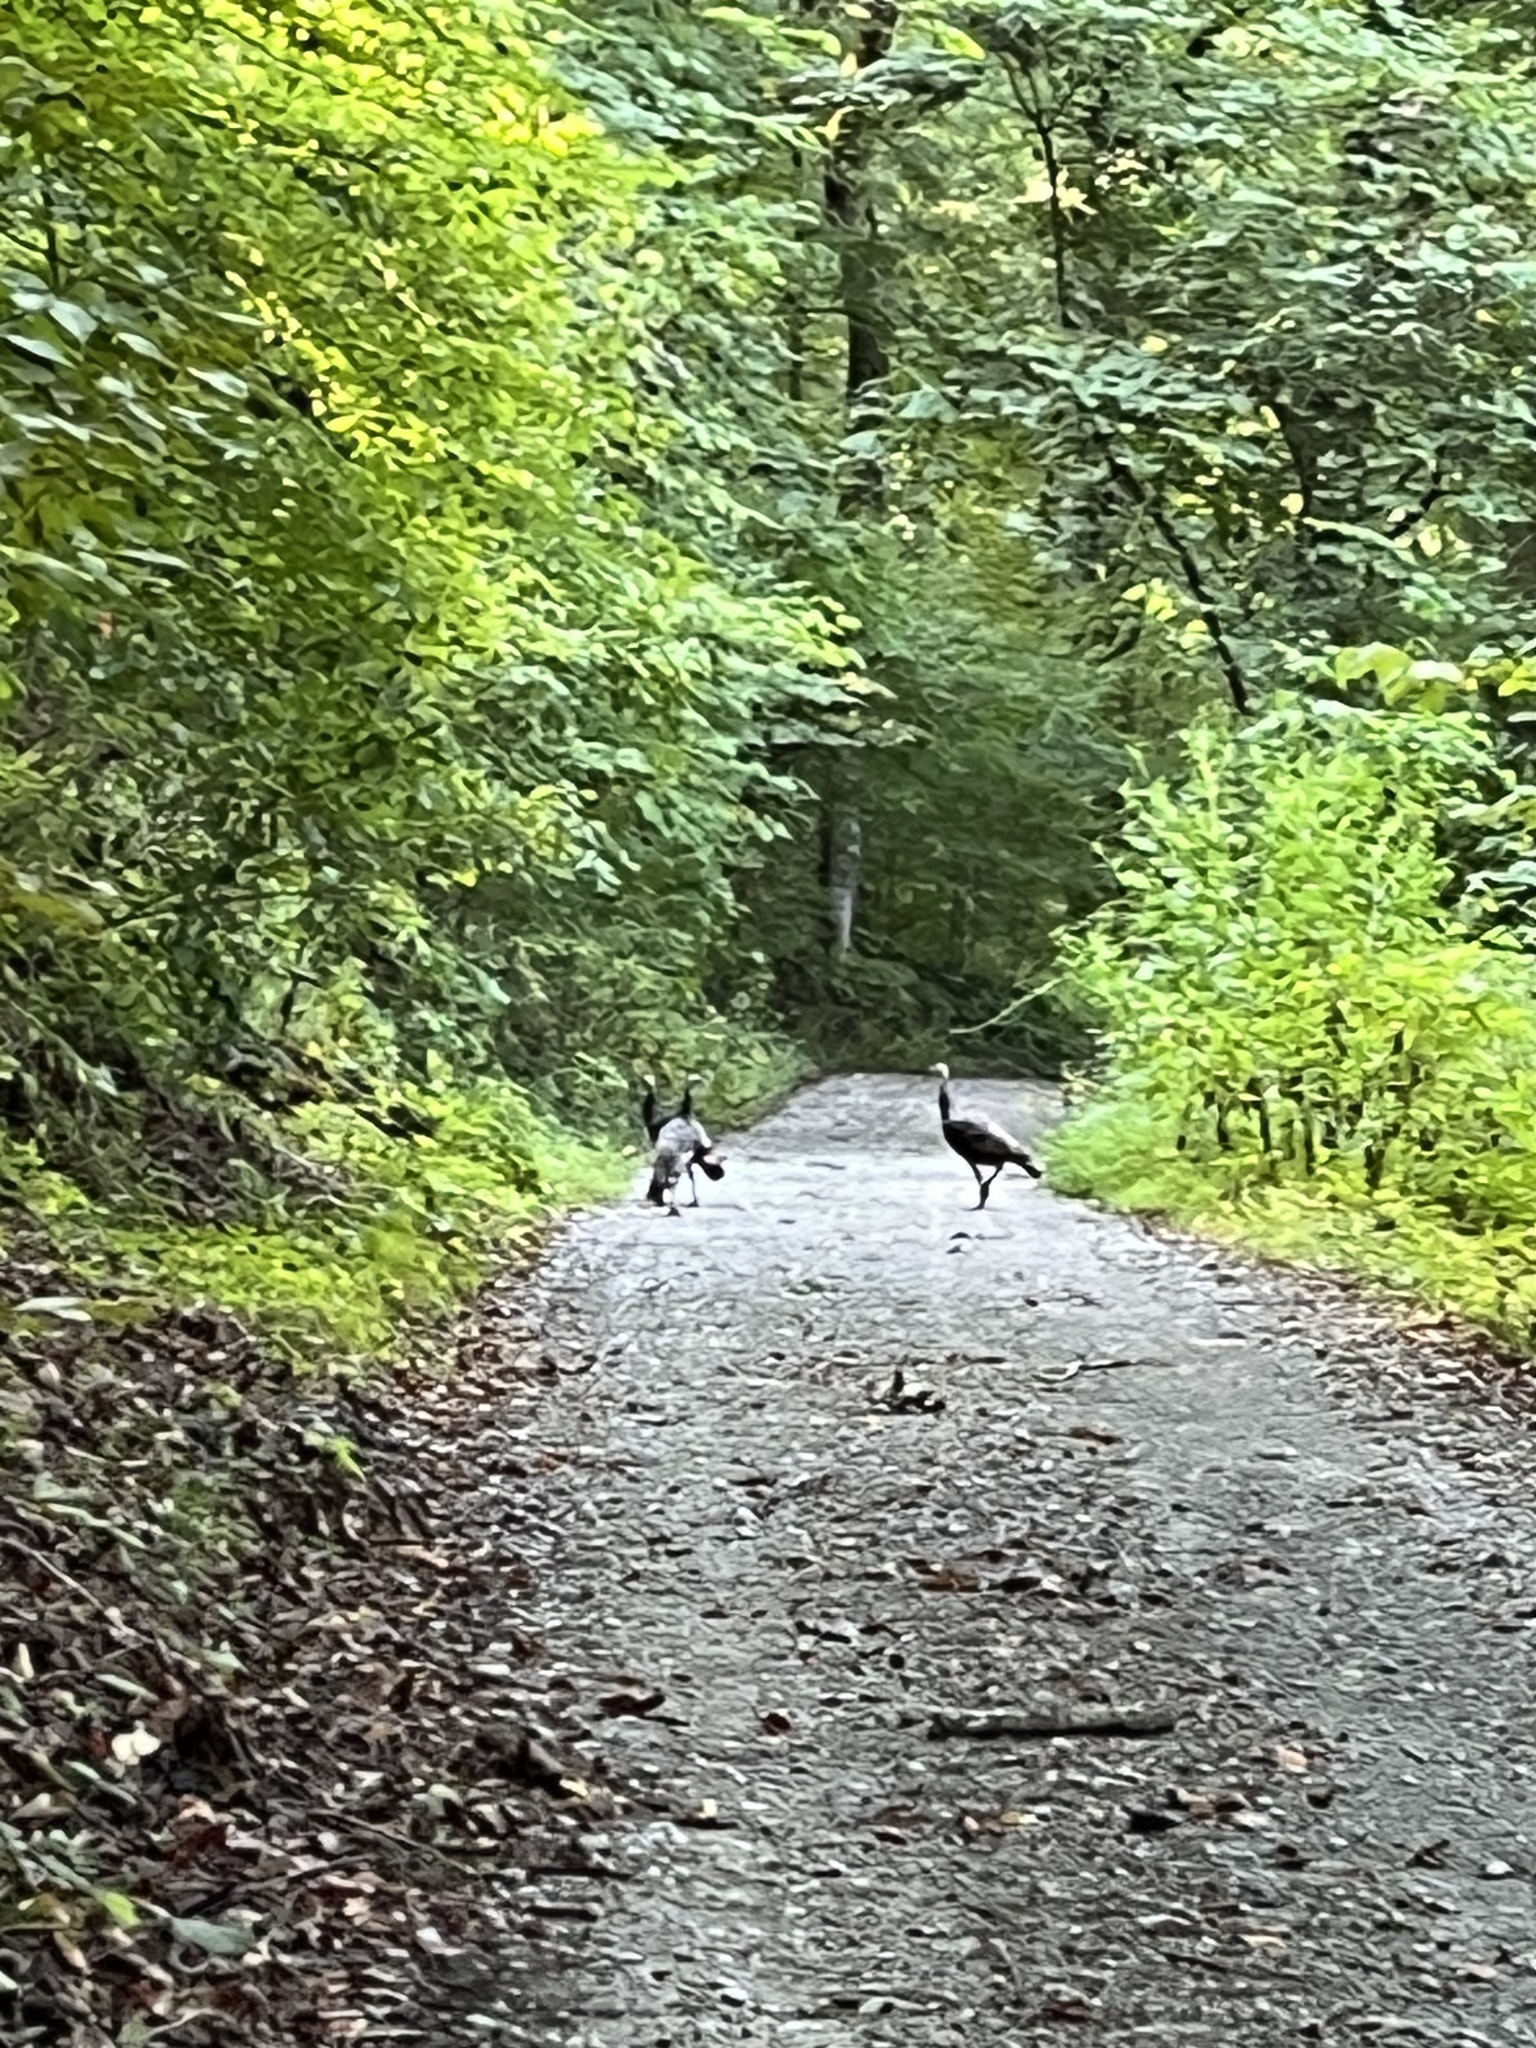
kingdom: Animalia
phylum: Chordata
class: Aves
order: Galliformes
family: Phasianidae
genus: Meleagris
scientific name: Meleagris gallopavo
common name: Wild turkey
